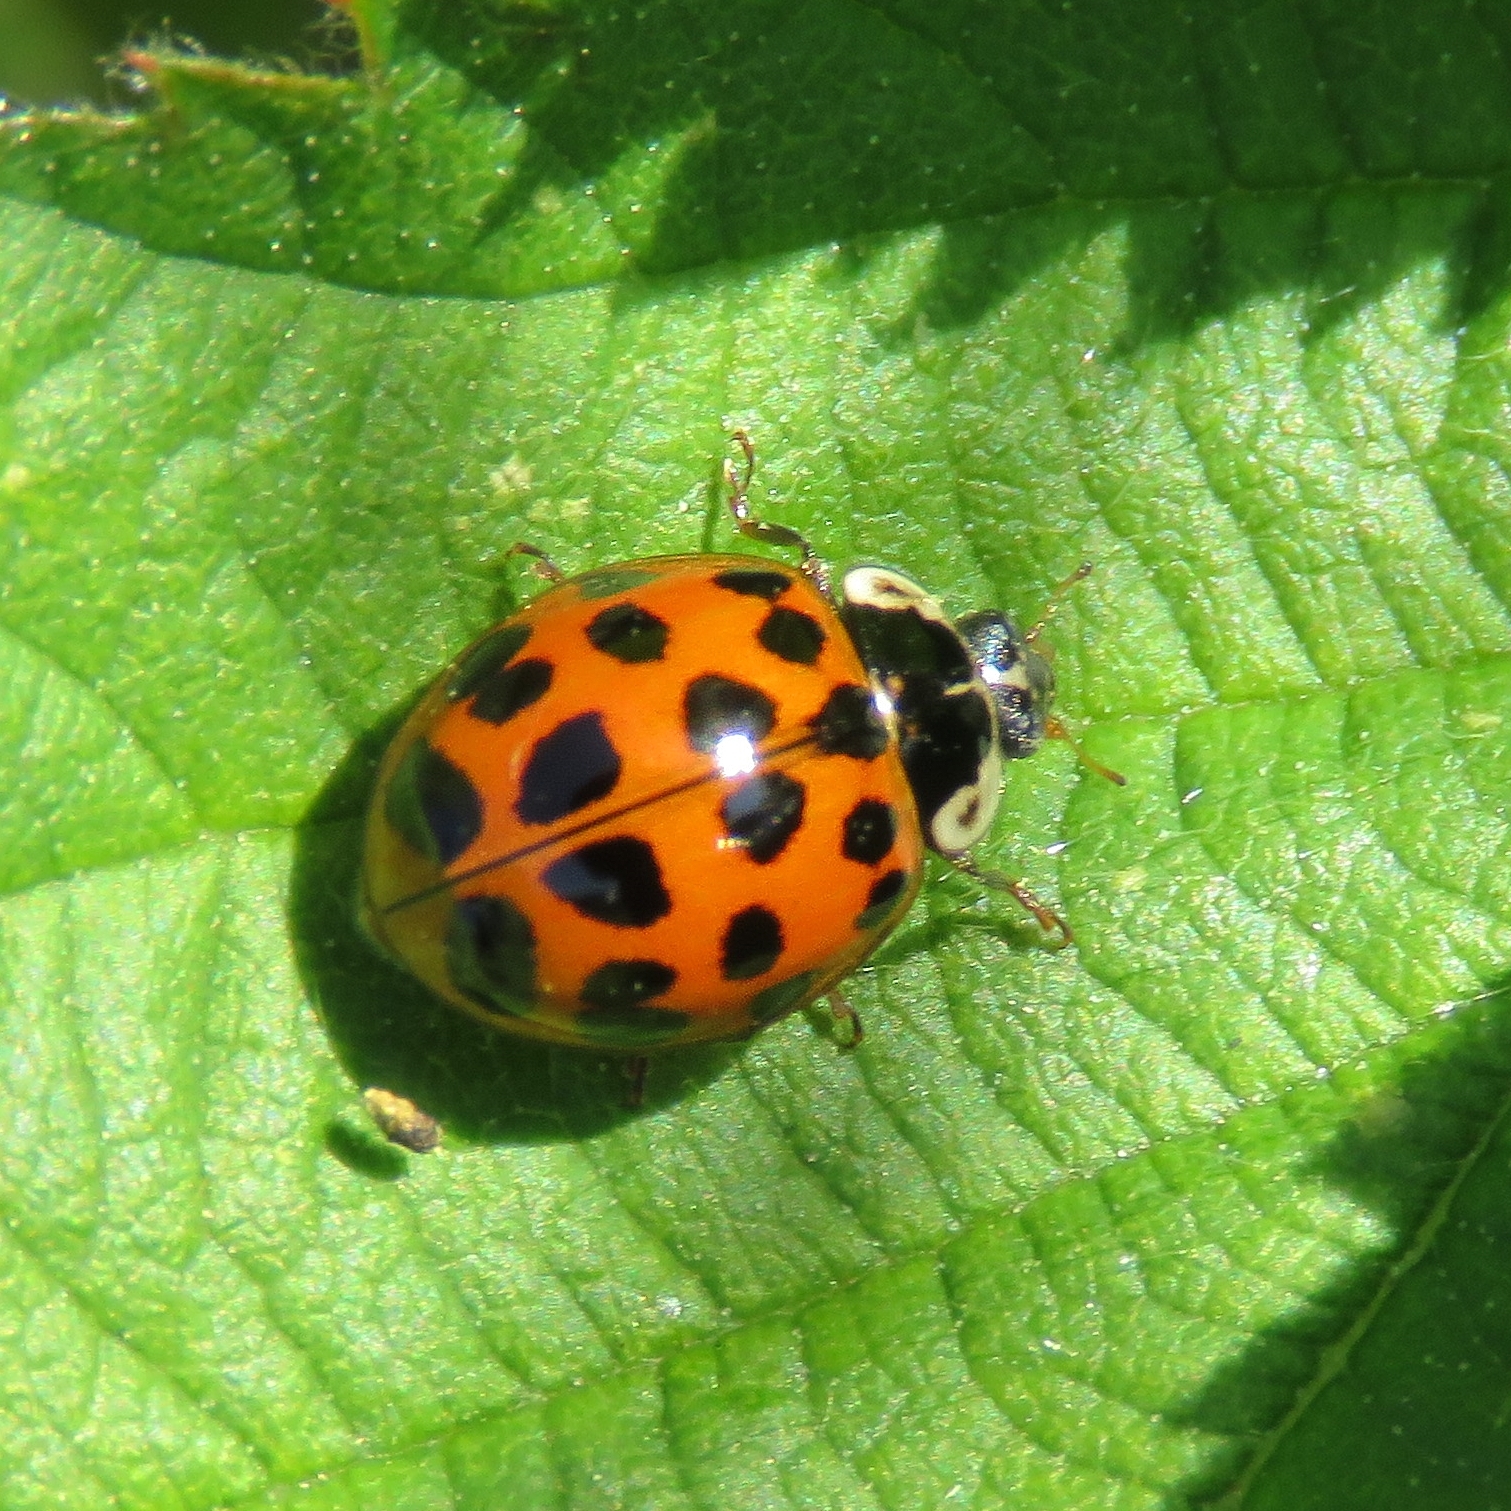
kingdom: Animalia
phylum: Arthropoda
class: Insecta
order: Coleoptera
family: Coccinellidae
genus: Harmonia
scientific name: Harmonia axyridis
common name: Harlequin ladybird
